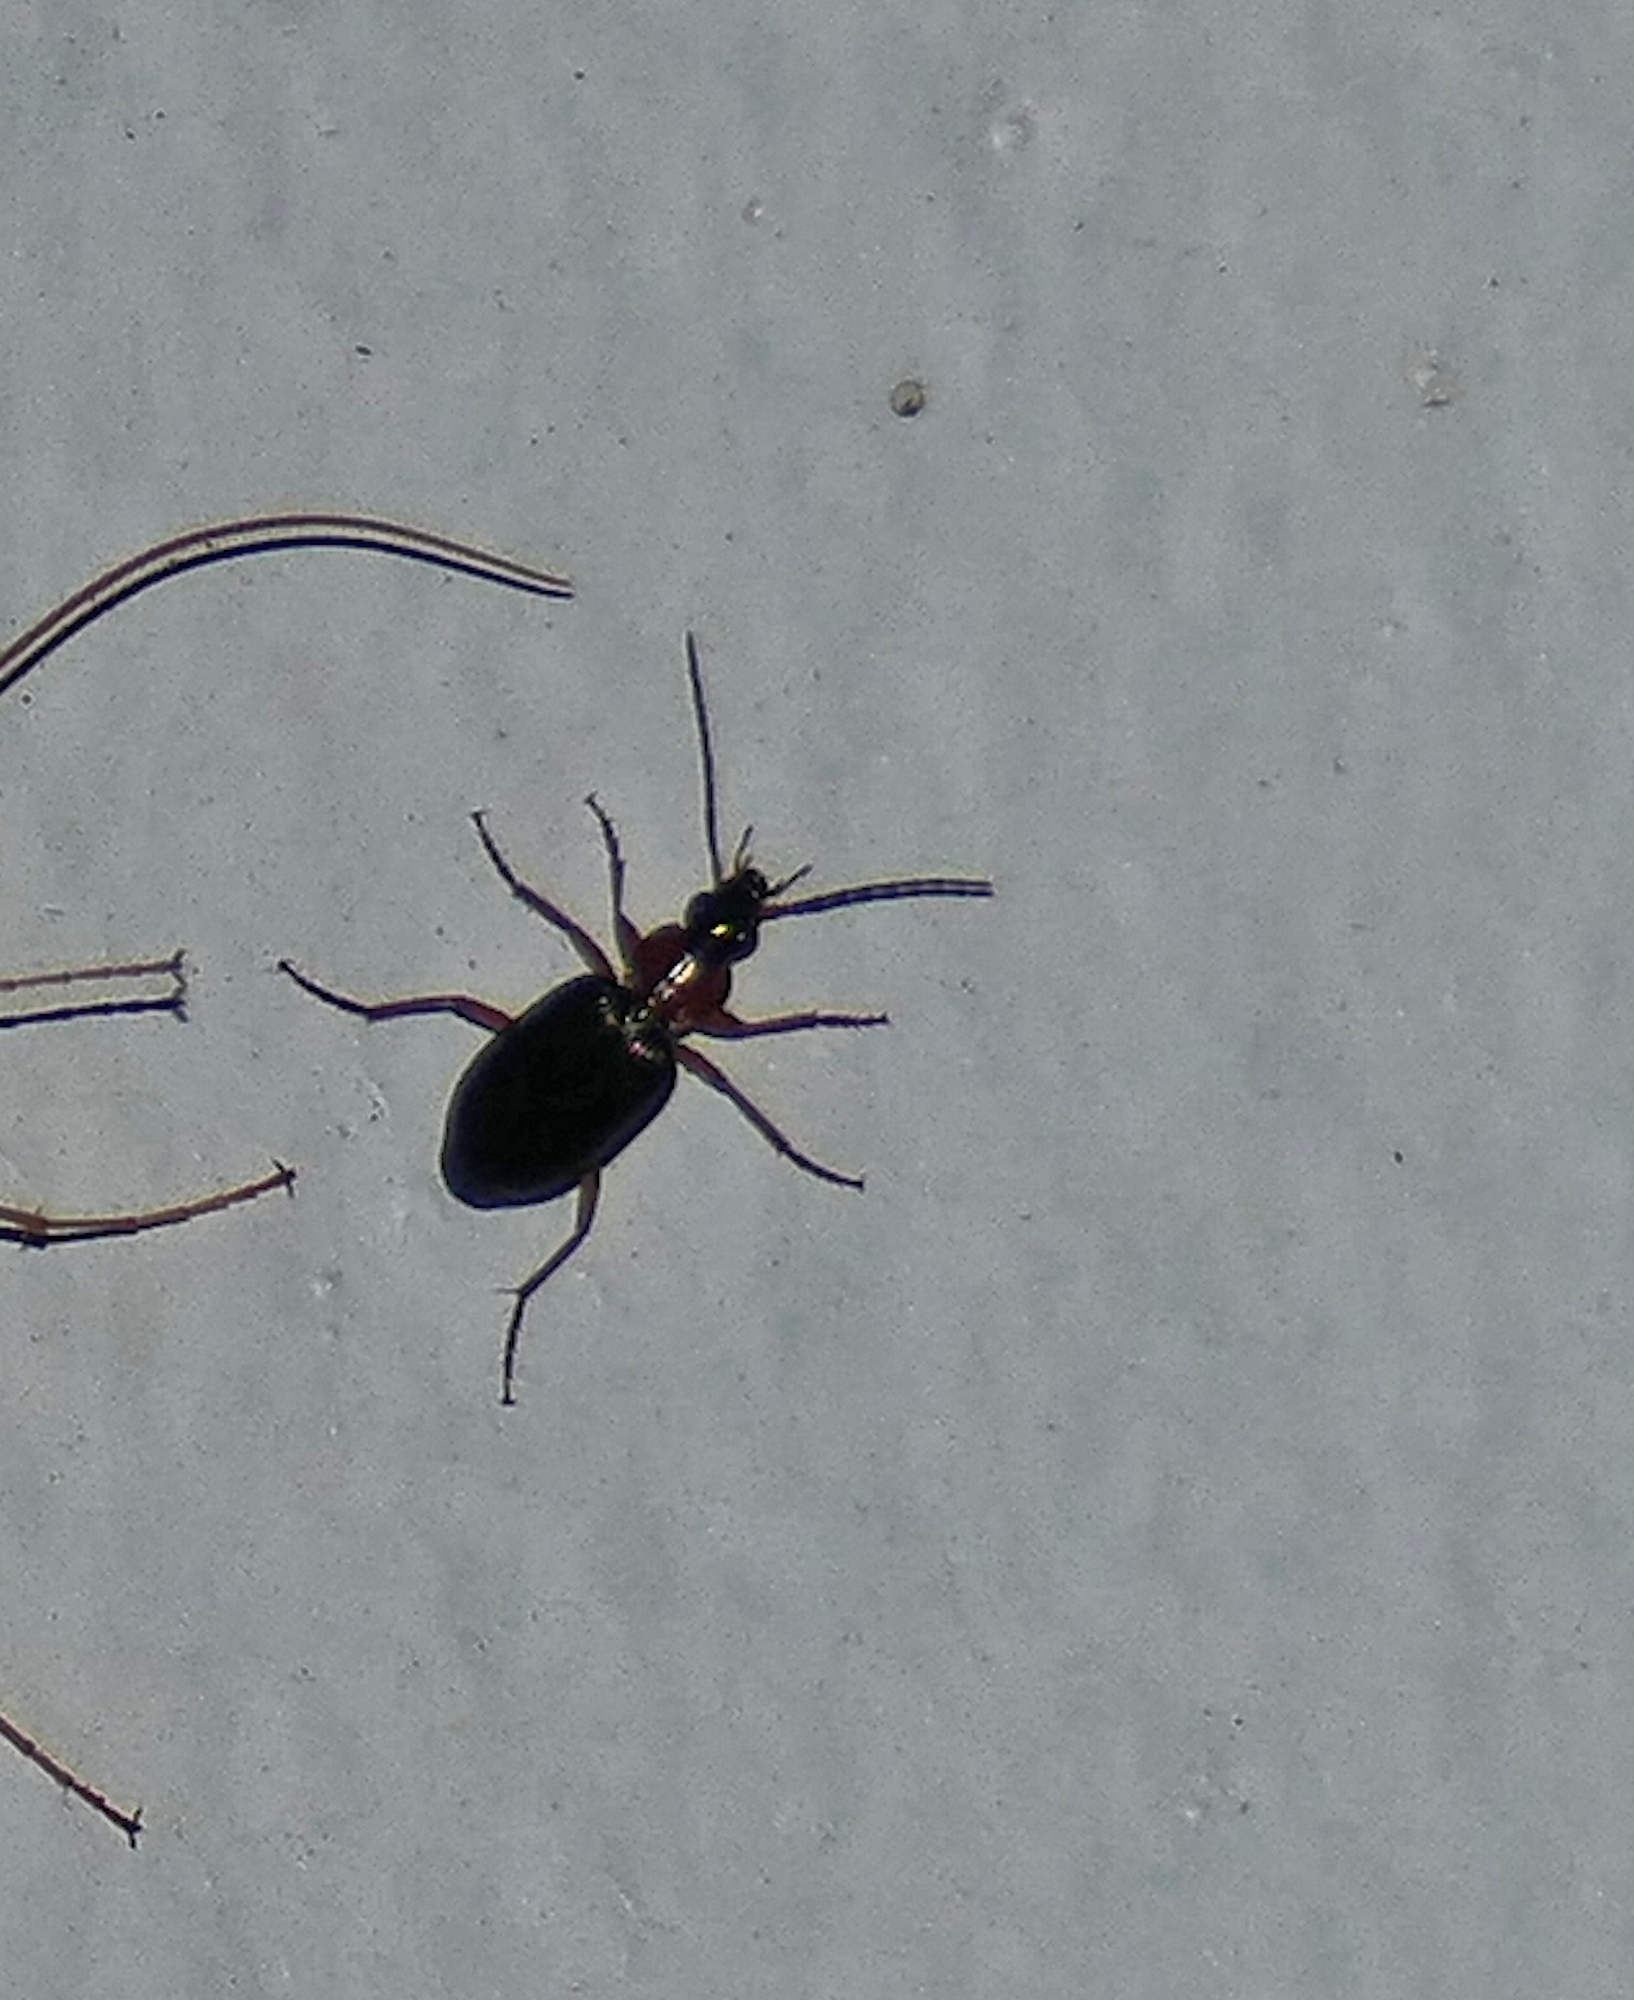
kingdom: Animalia
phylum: Arthropoda
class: Insecta
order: Coleoptera
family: Carabidae
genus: Agonum
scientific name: Agonum decorum
